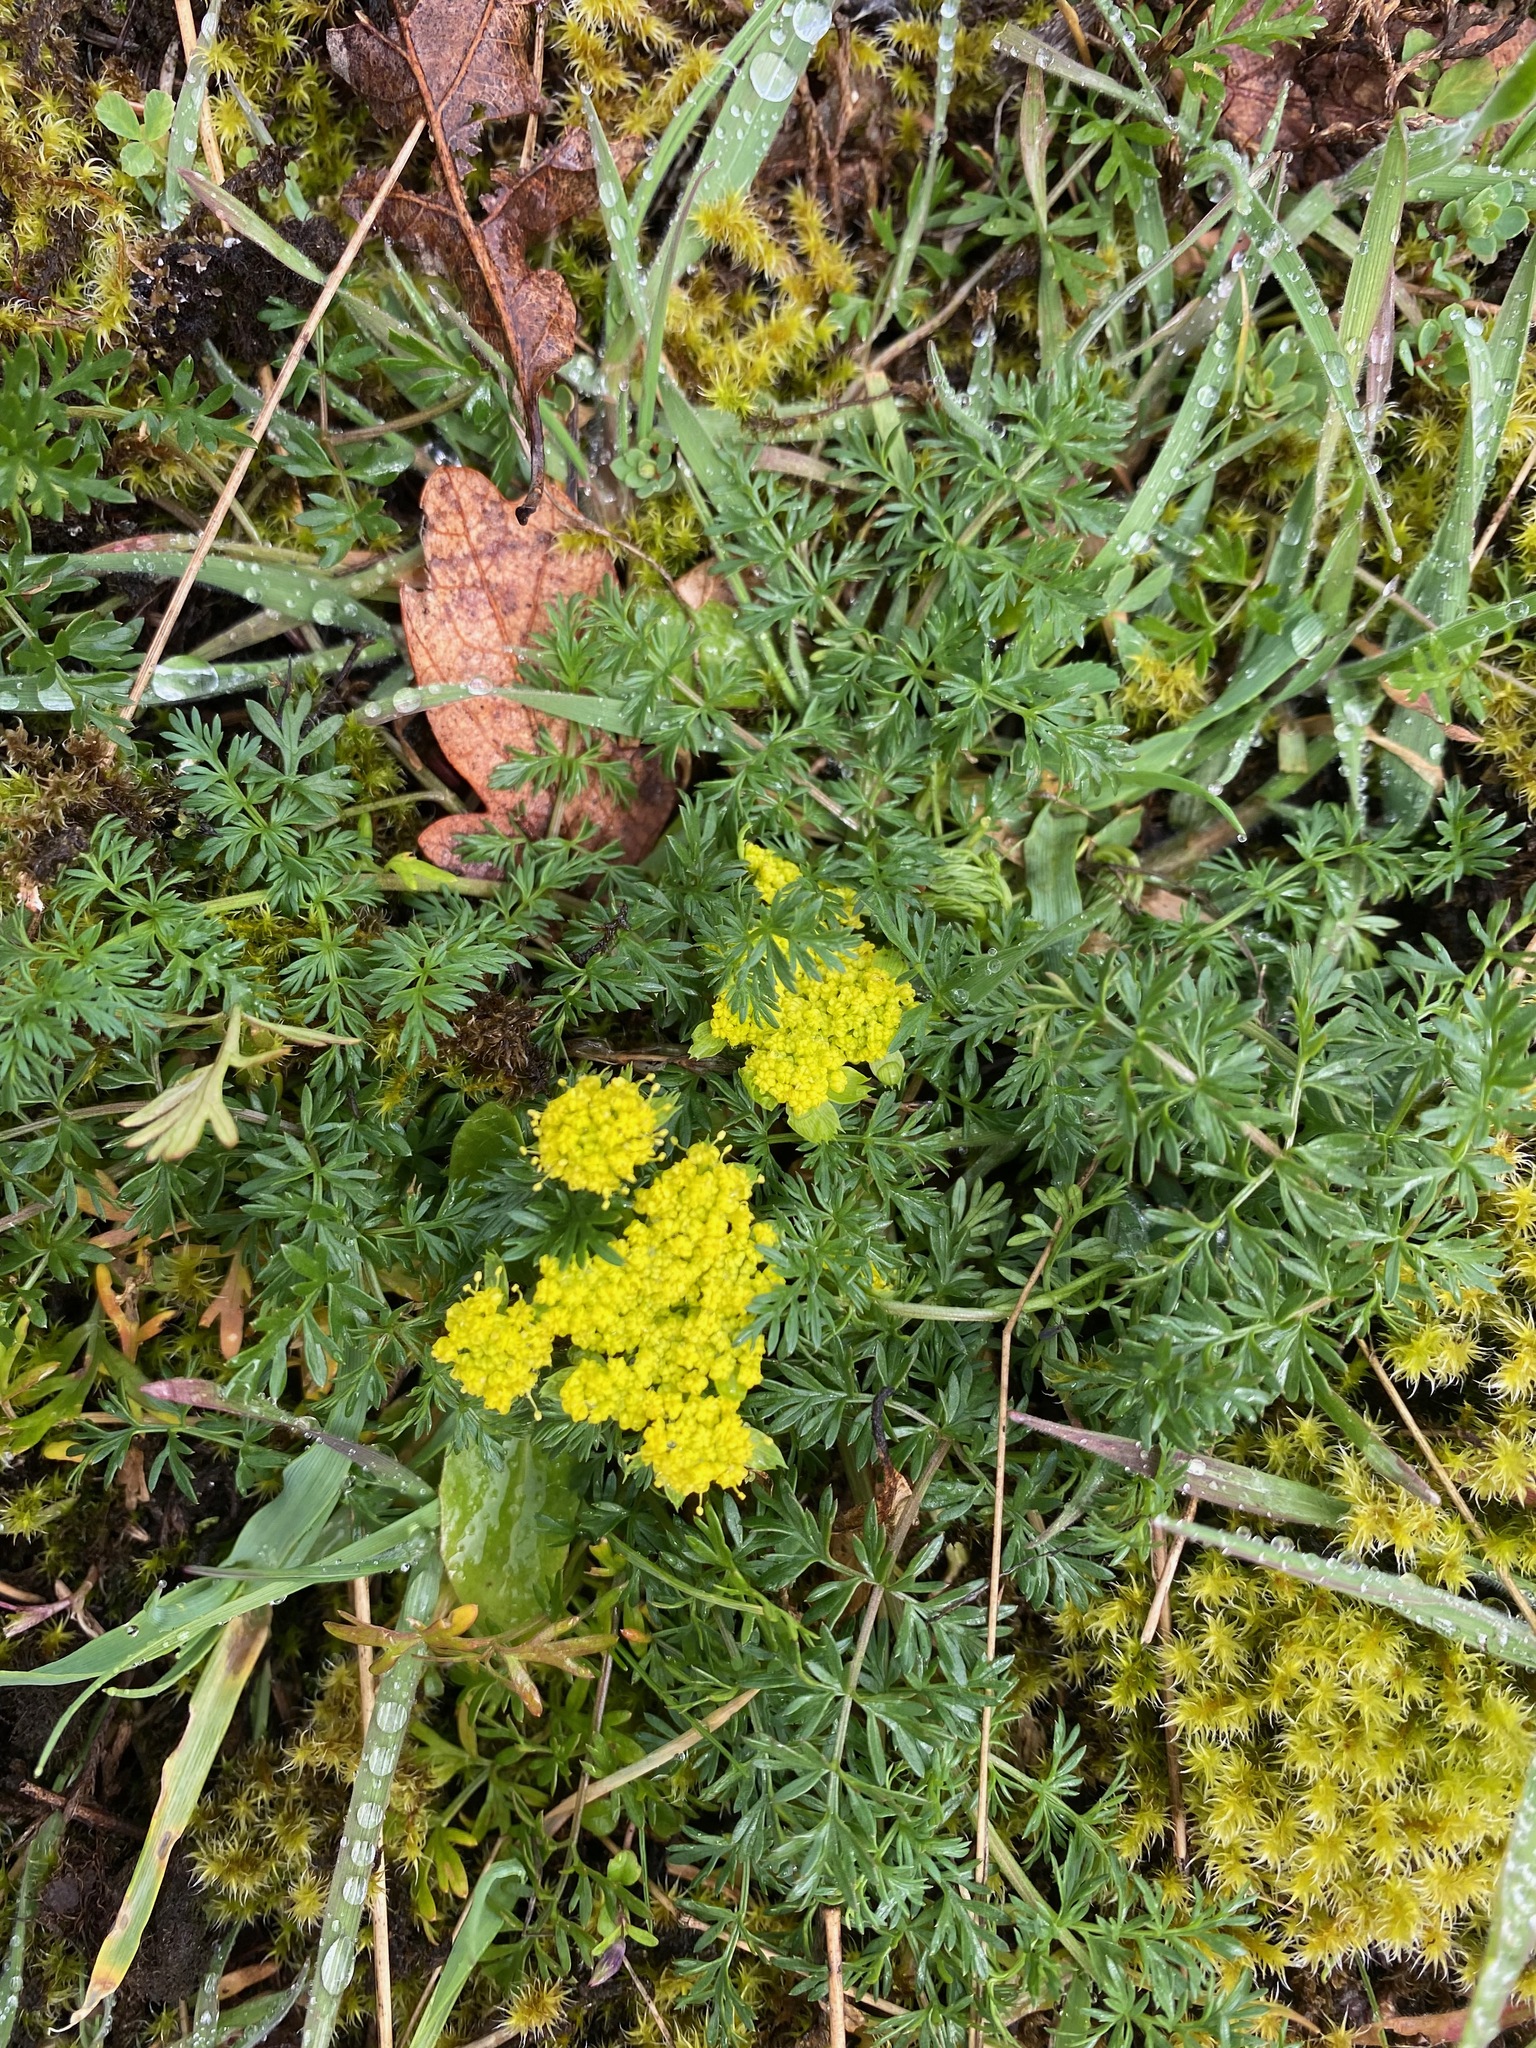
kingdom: Plantae
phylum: Tracheophyta
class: Magnoliopsida
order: Apiales
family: Apiaceae
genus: Lomatium
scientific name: Lomatium utriculatum
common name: Fine-leaf desert-parsley
